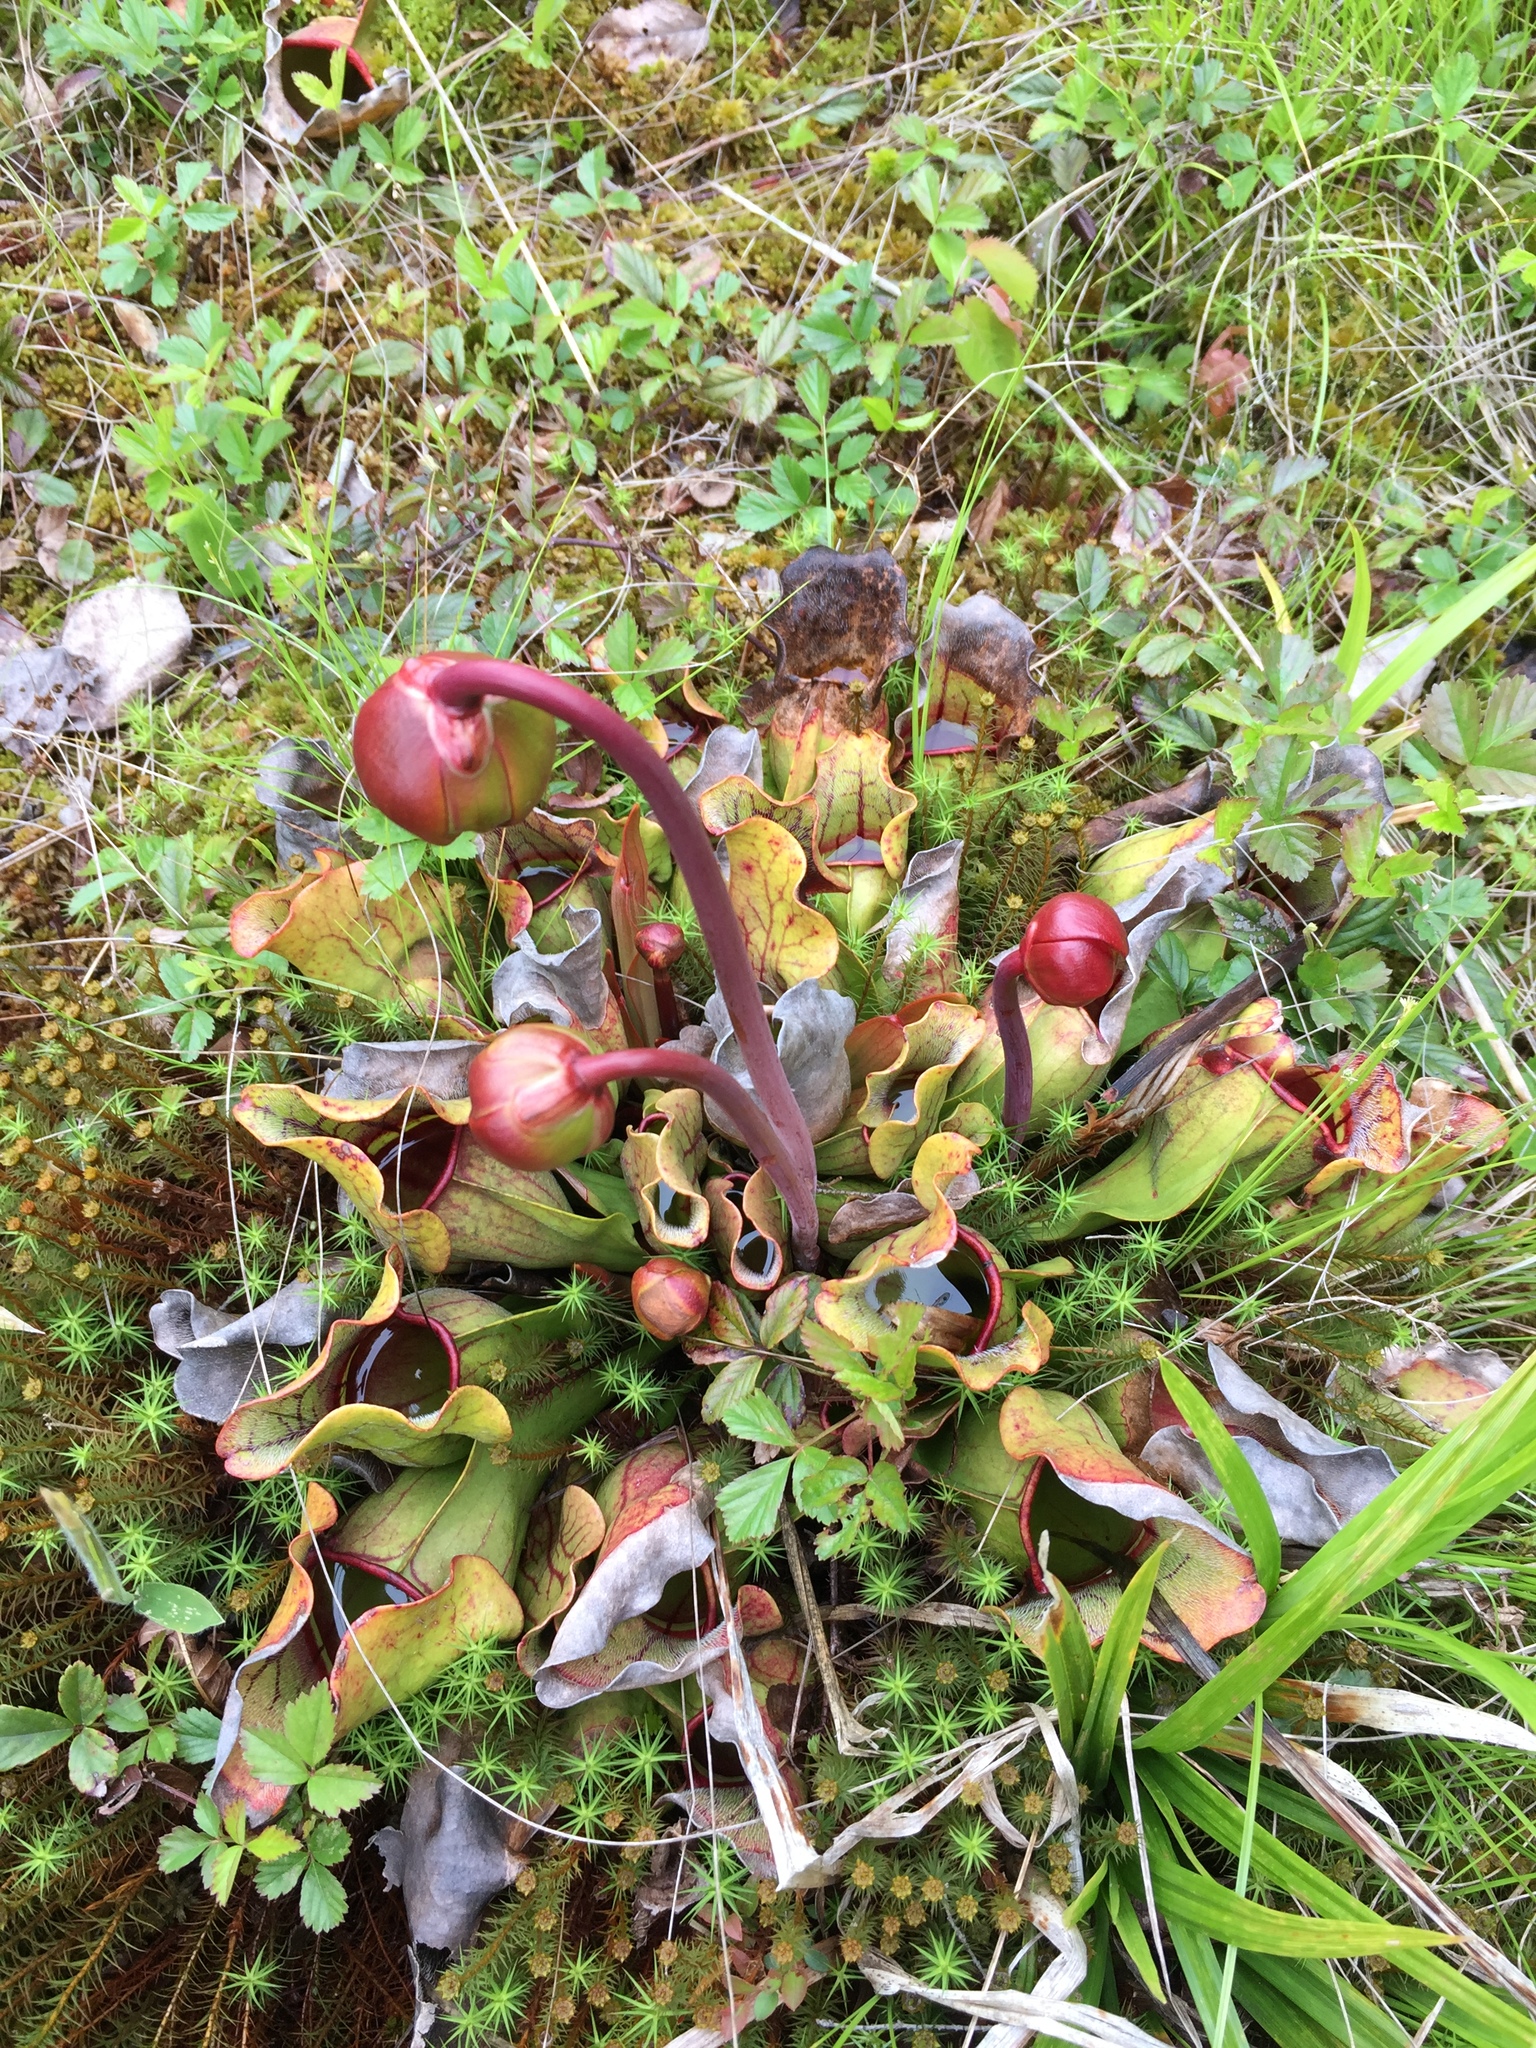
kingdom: Plantae
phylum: Tracheophyta
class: Magnoliopsida
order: Ericales
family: Sarraceniaceae
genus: Sarracenia
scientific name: Sarracenia purpurea
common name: Pitcherplant
